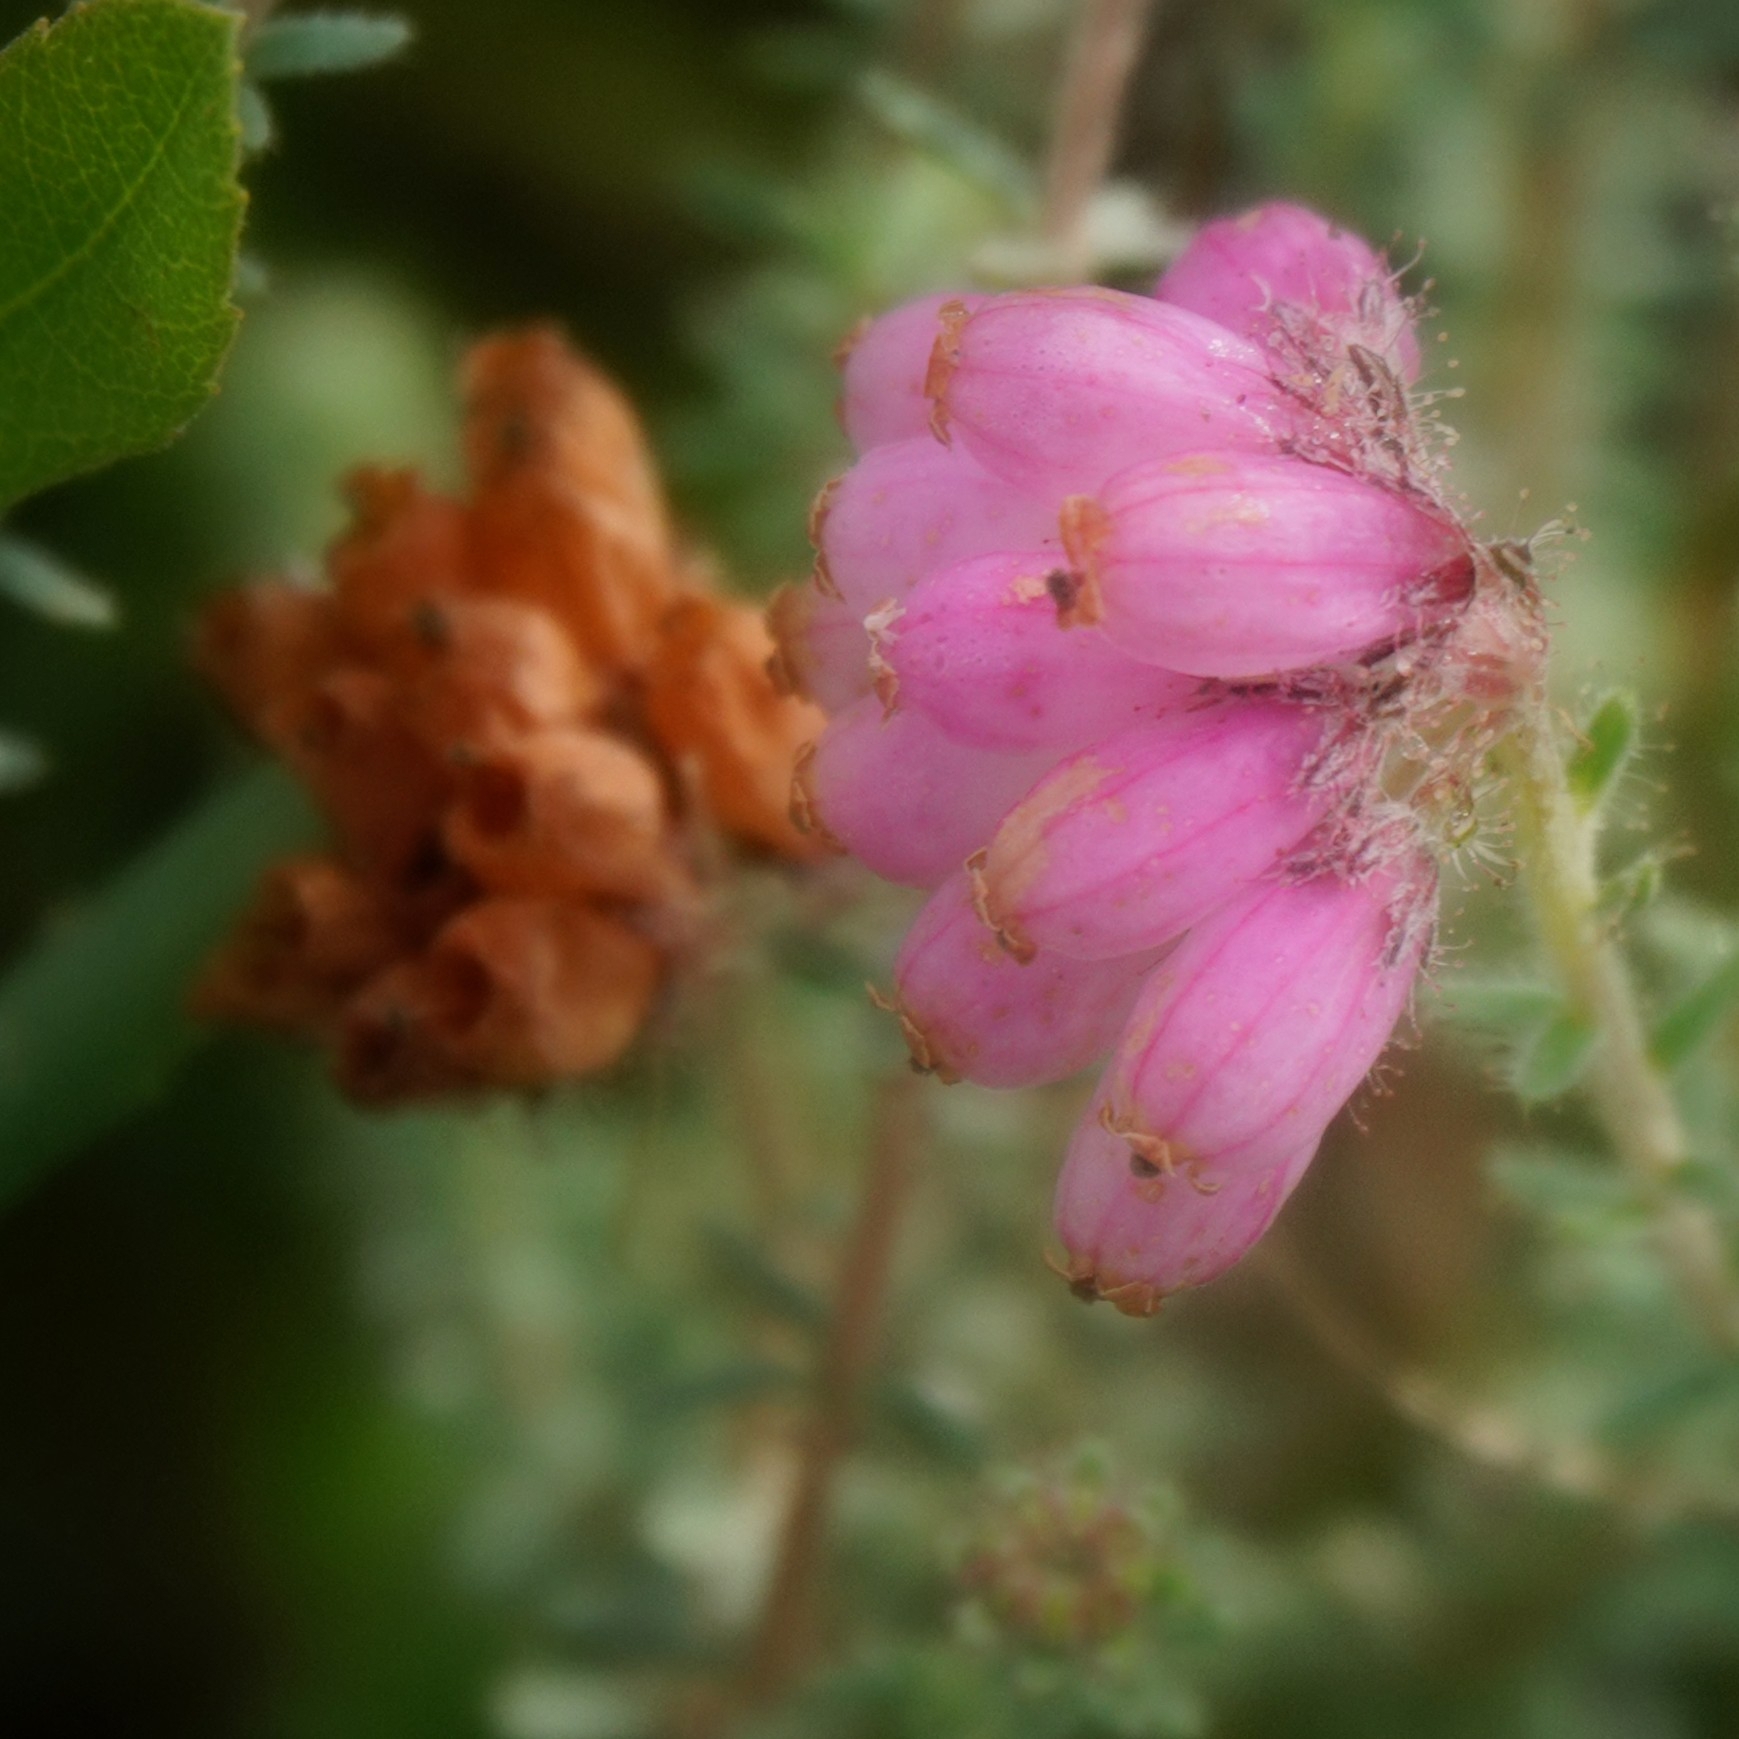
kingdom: Plantae
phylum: Tracheophyta
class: Magnoliopsida
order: Ericales
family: Ericaceae
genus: Erica
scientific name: Erica tetralix
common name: Cross-leaved heath
